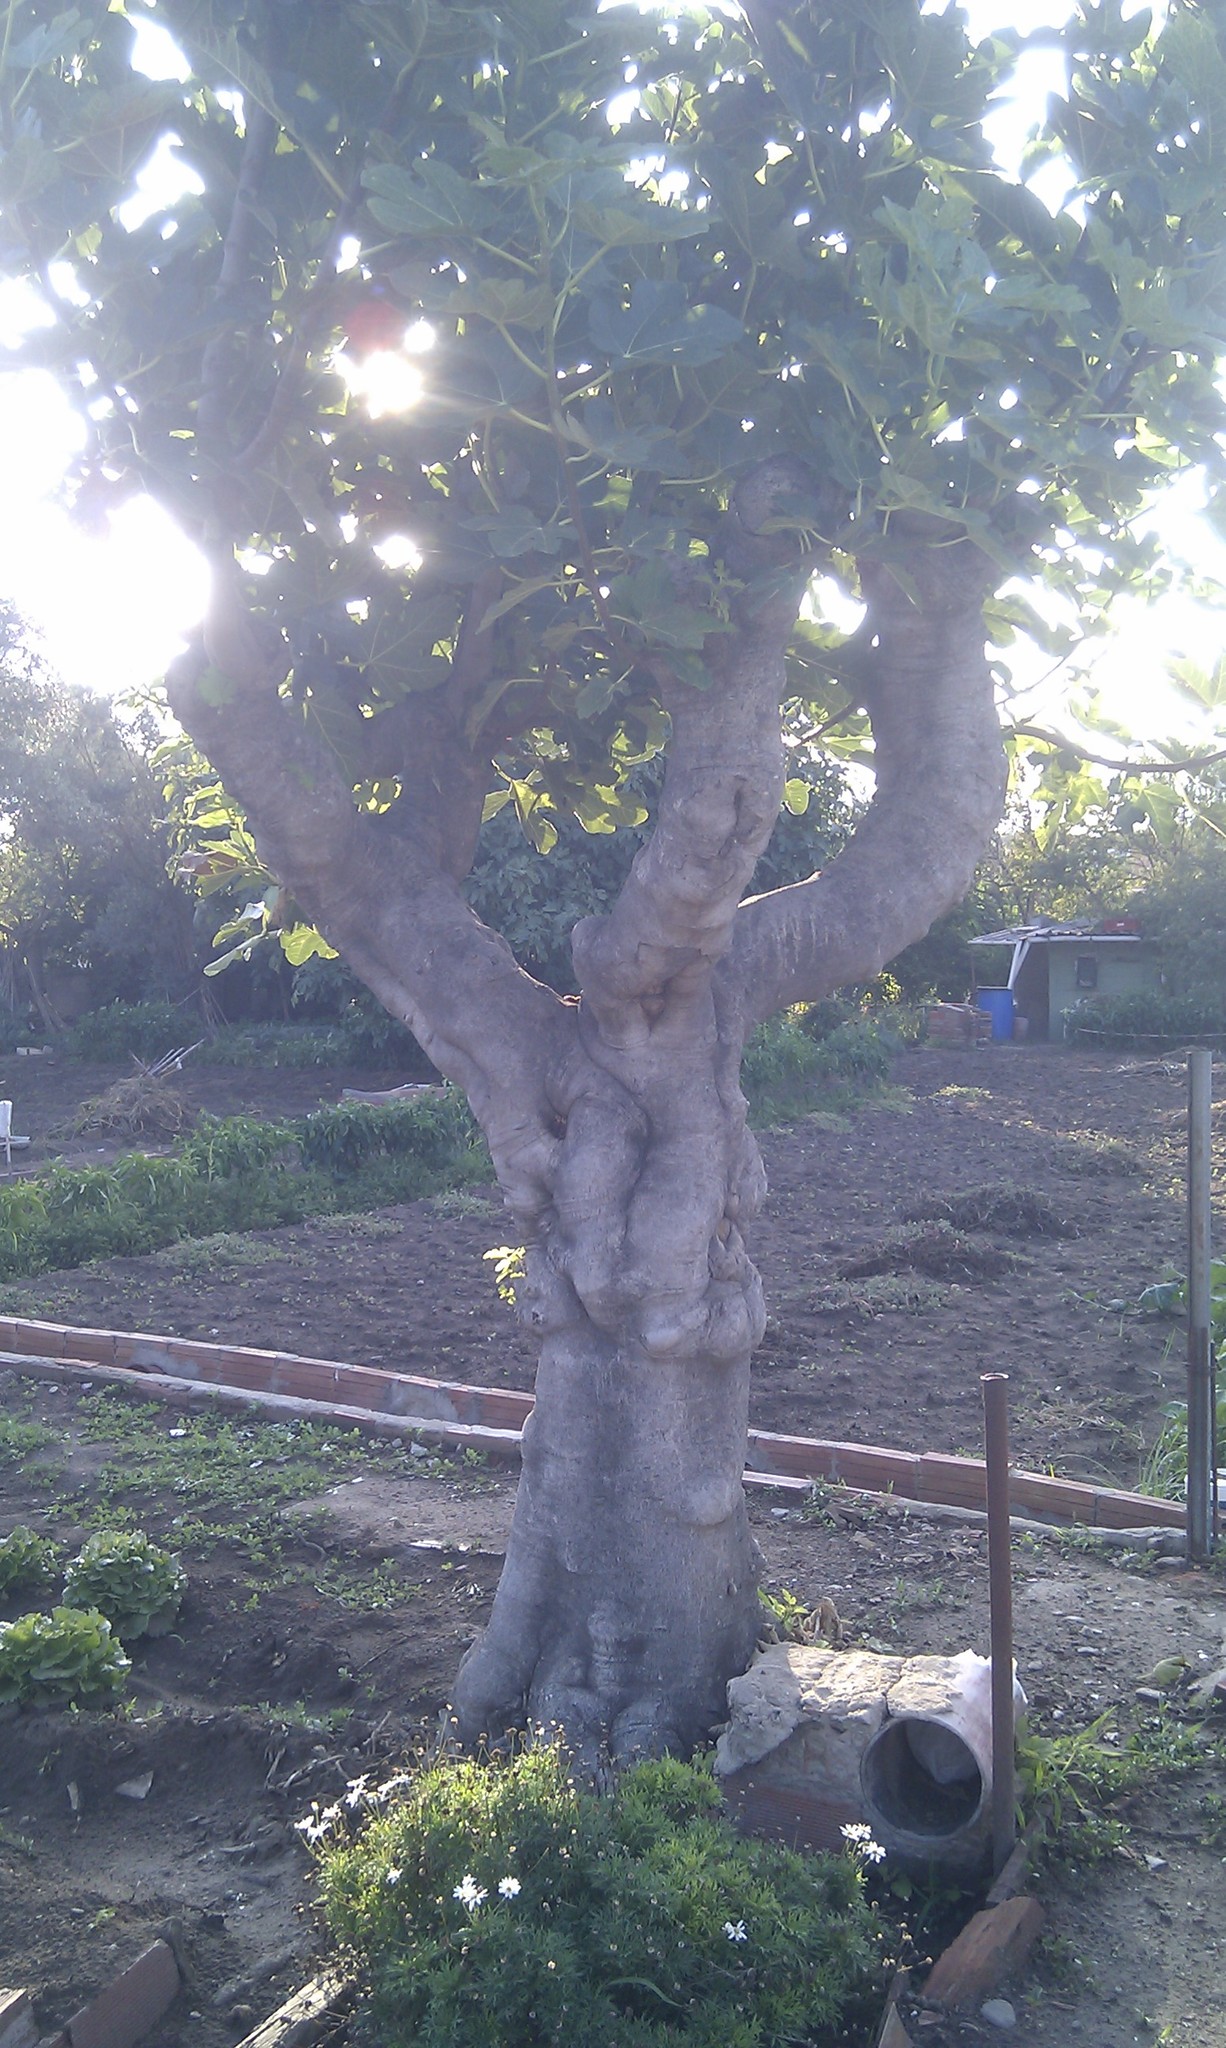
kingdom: Plantae
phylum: Tracheophyta
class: Magnoliopsida
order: Rosales
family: Moraceae
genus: Ficus
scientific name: Ficus carica
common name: Fig
